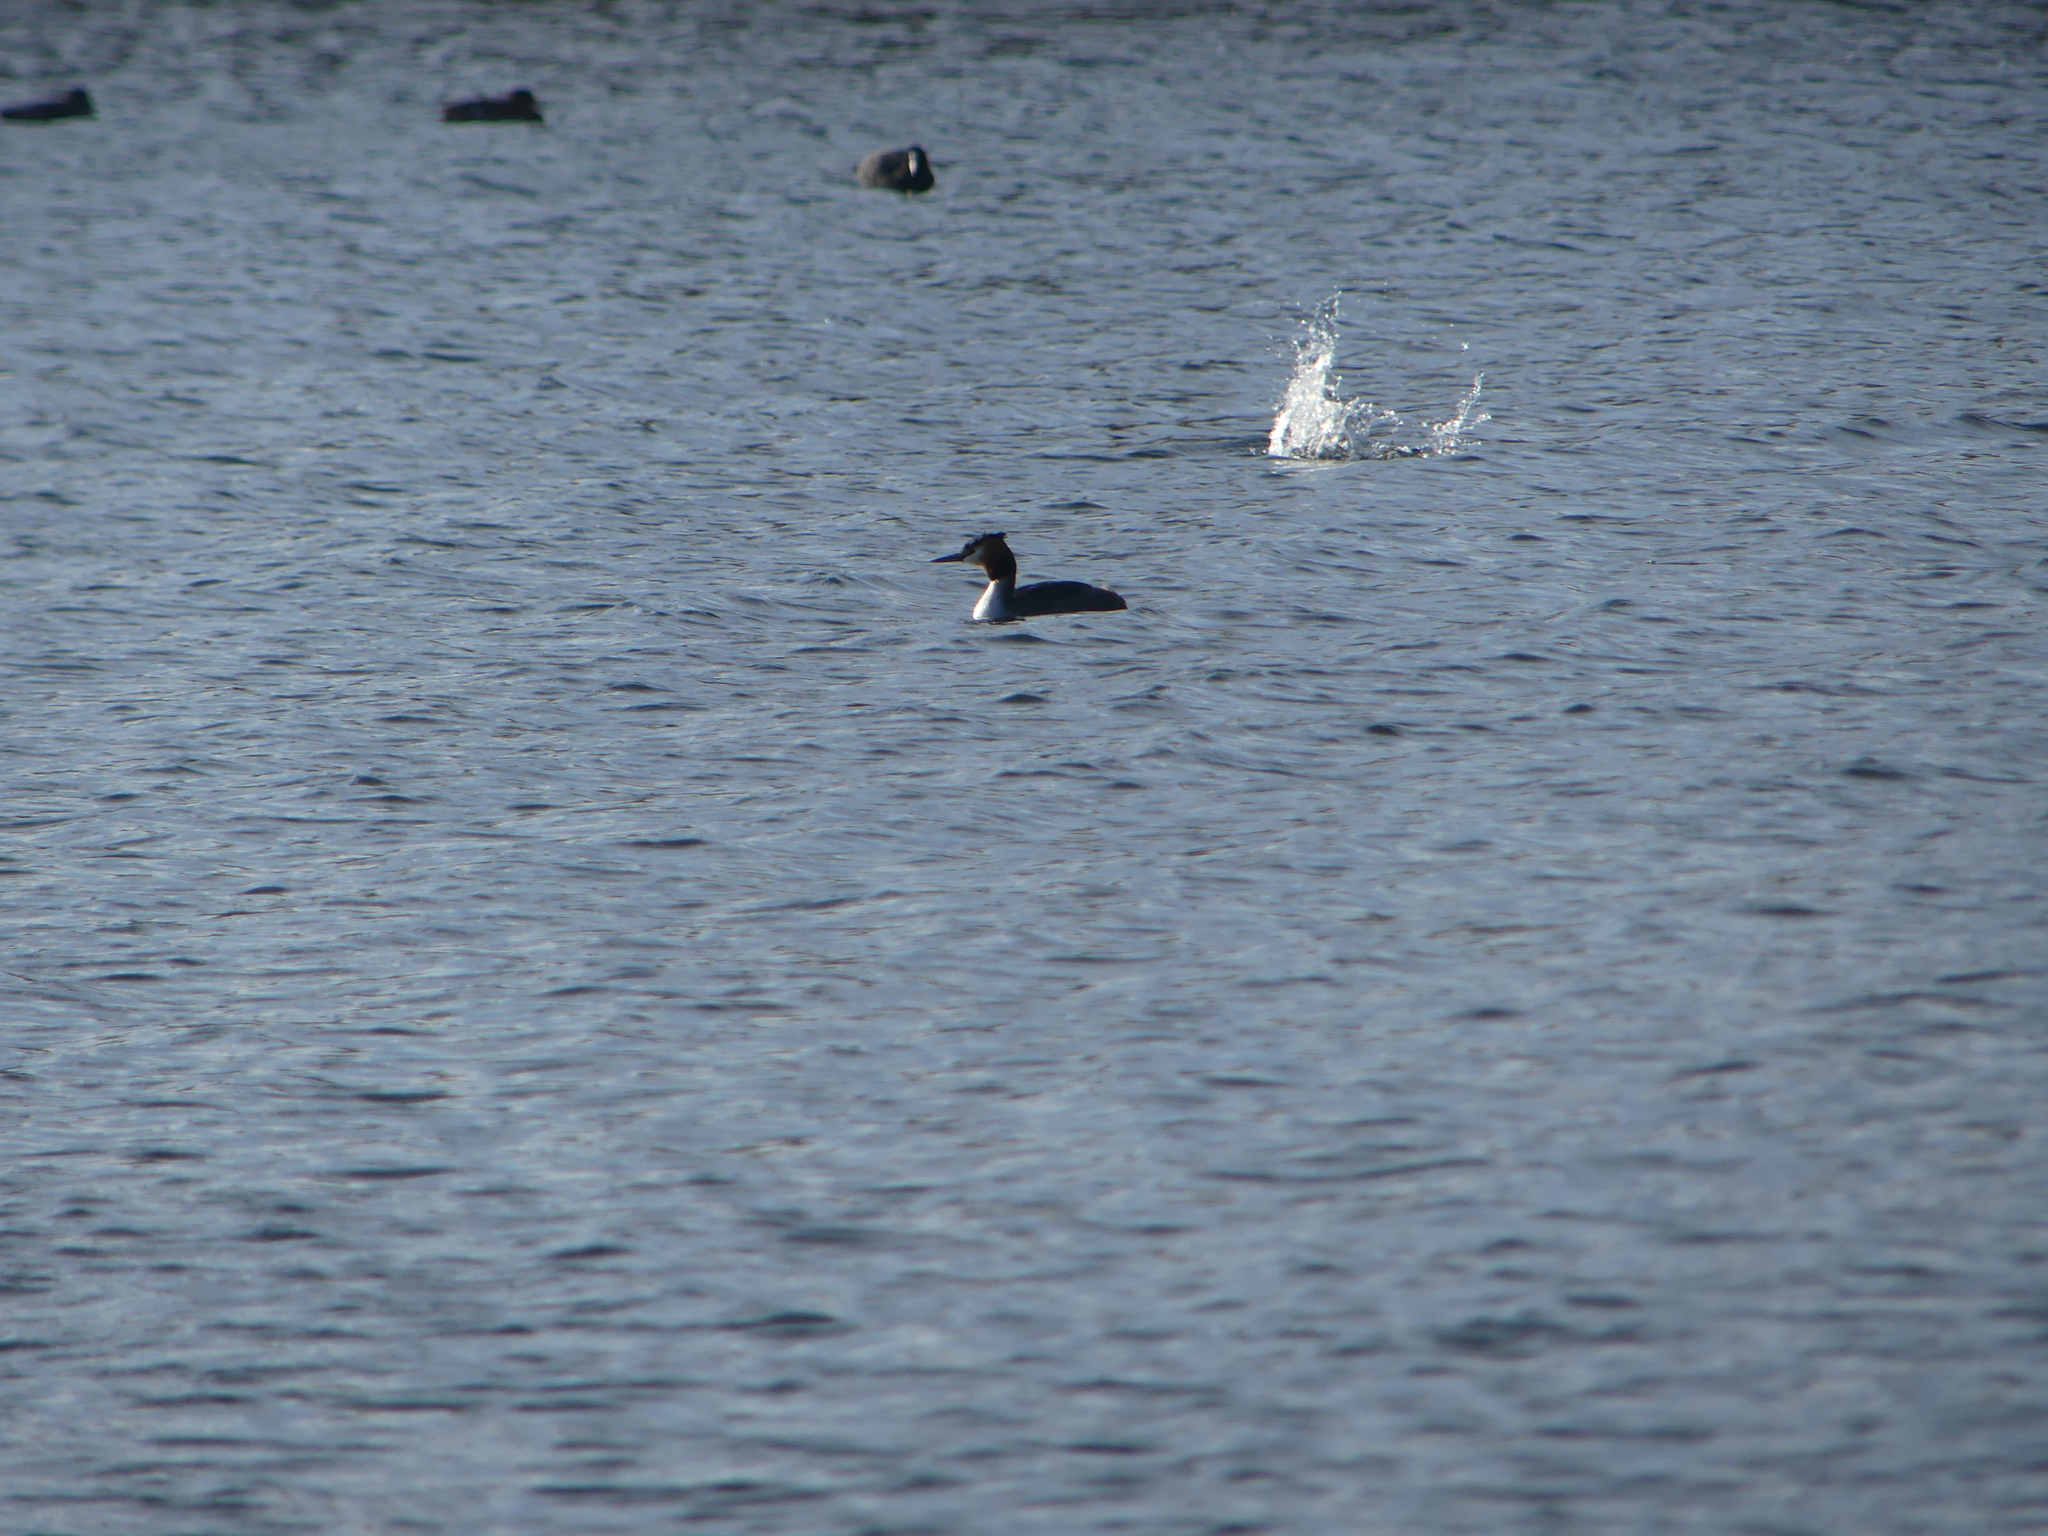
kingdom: Animalia
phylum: Chordata
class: Aves
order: Podicipediformes
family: Podicipedidae
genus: Podiceps
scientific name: Podiceps cristatus
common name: Great crested grebe
